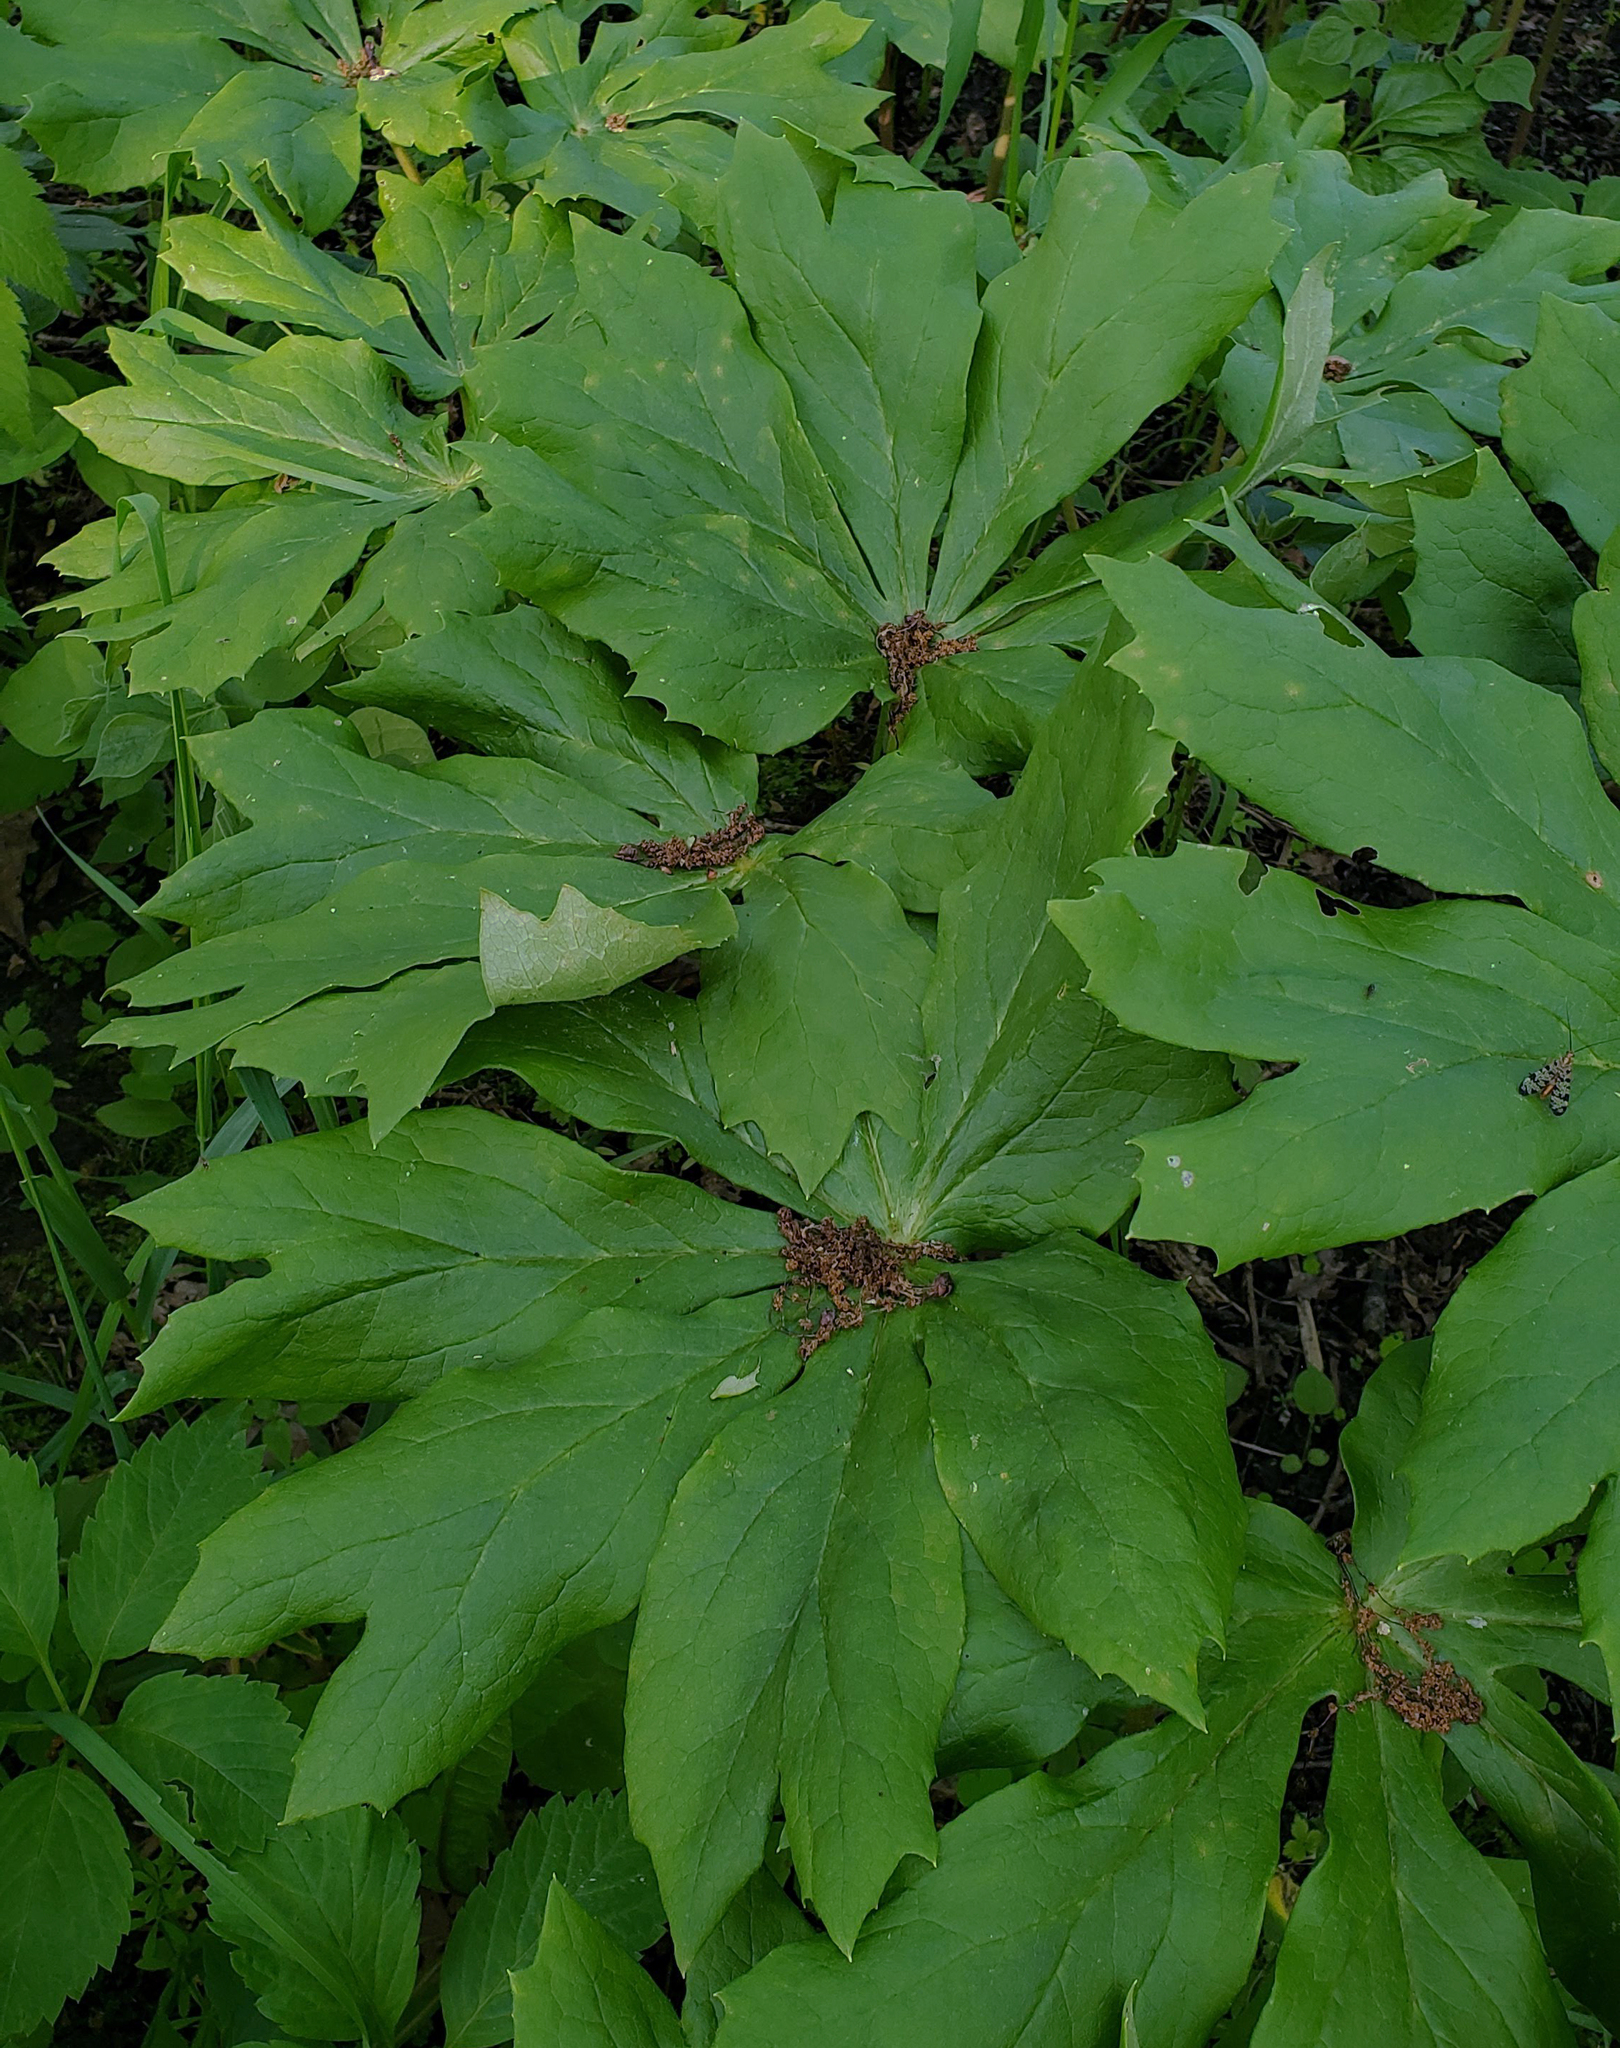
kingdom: Plantae
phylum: Tracheophyta
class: Magnoliopsida
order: Ranunculales
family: Berberidaceae
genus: Podophyllum
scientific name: Podophyllum peltatum
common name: Wild mandrake
